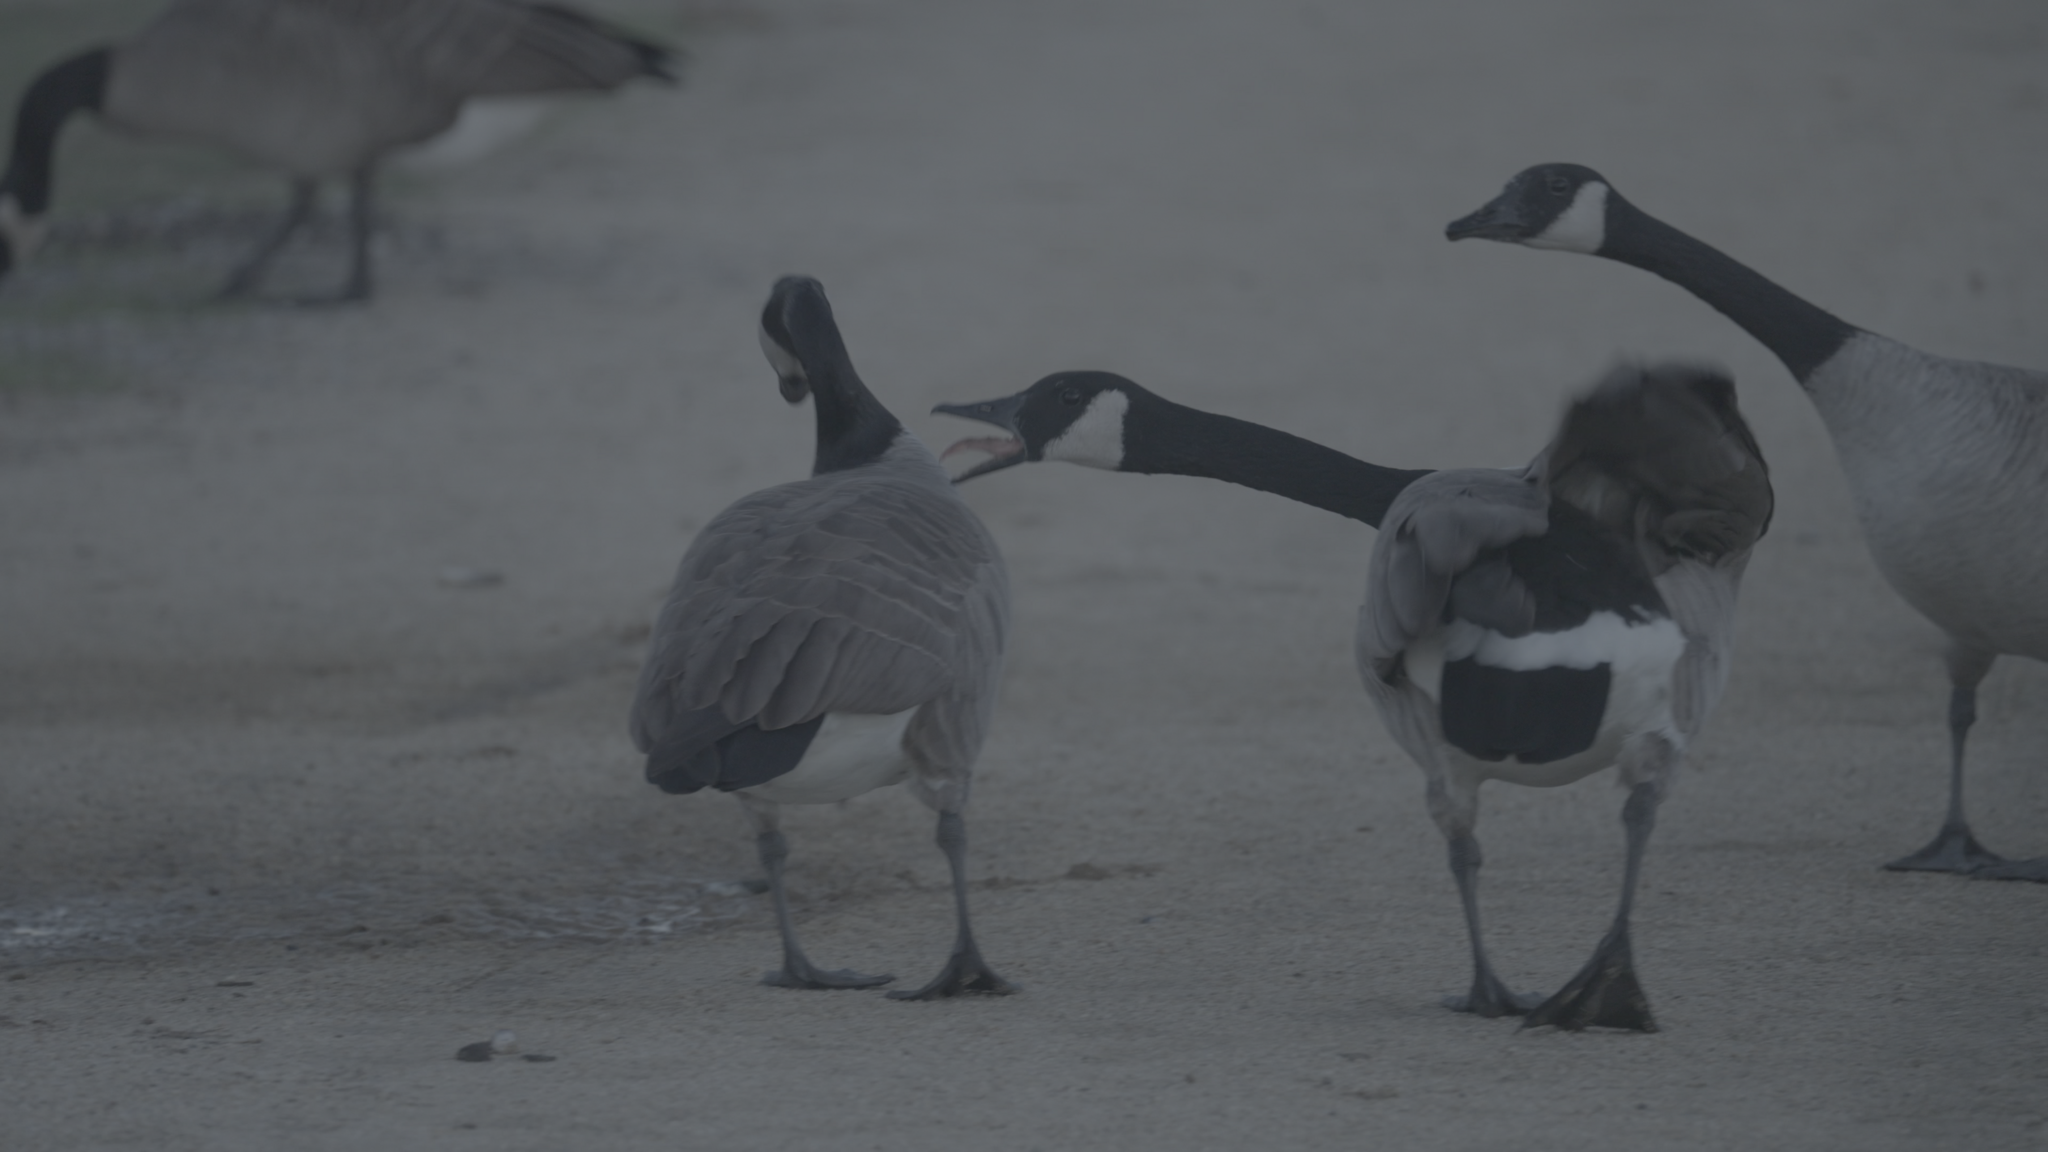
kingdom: Animalia
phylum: Chordata
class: Aves
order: Anseriformes
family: Anatidae
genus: Branta
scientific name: Branta canadensis
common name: Canada goose
